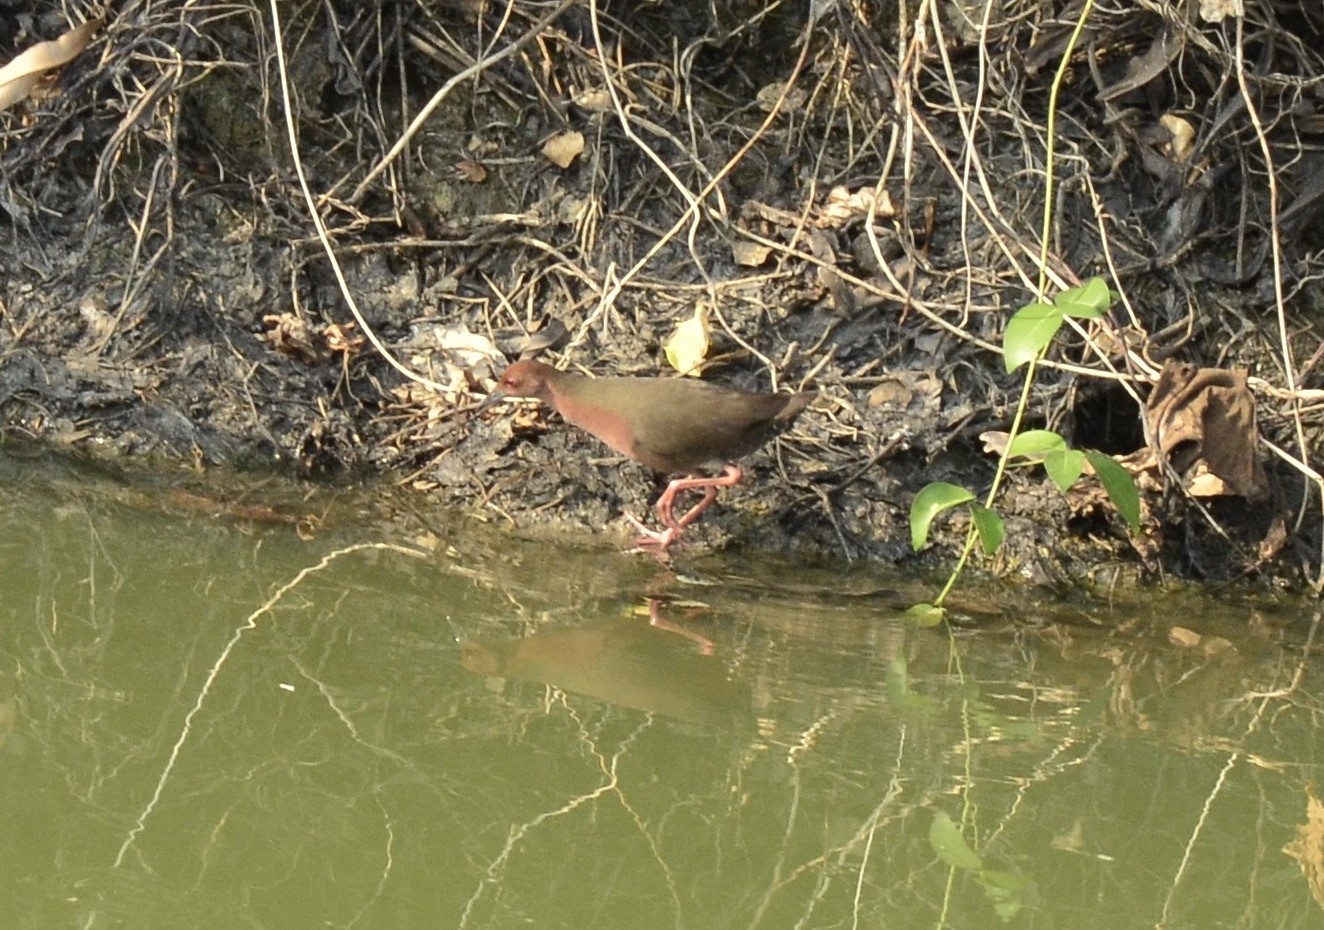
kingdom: Animalia
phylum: Chordata
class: Aves
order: Gruiformes
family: Rallidae
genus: Porzana
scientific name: Porzana fusca
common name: Ruddy-breasted crake
